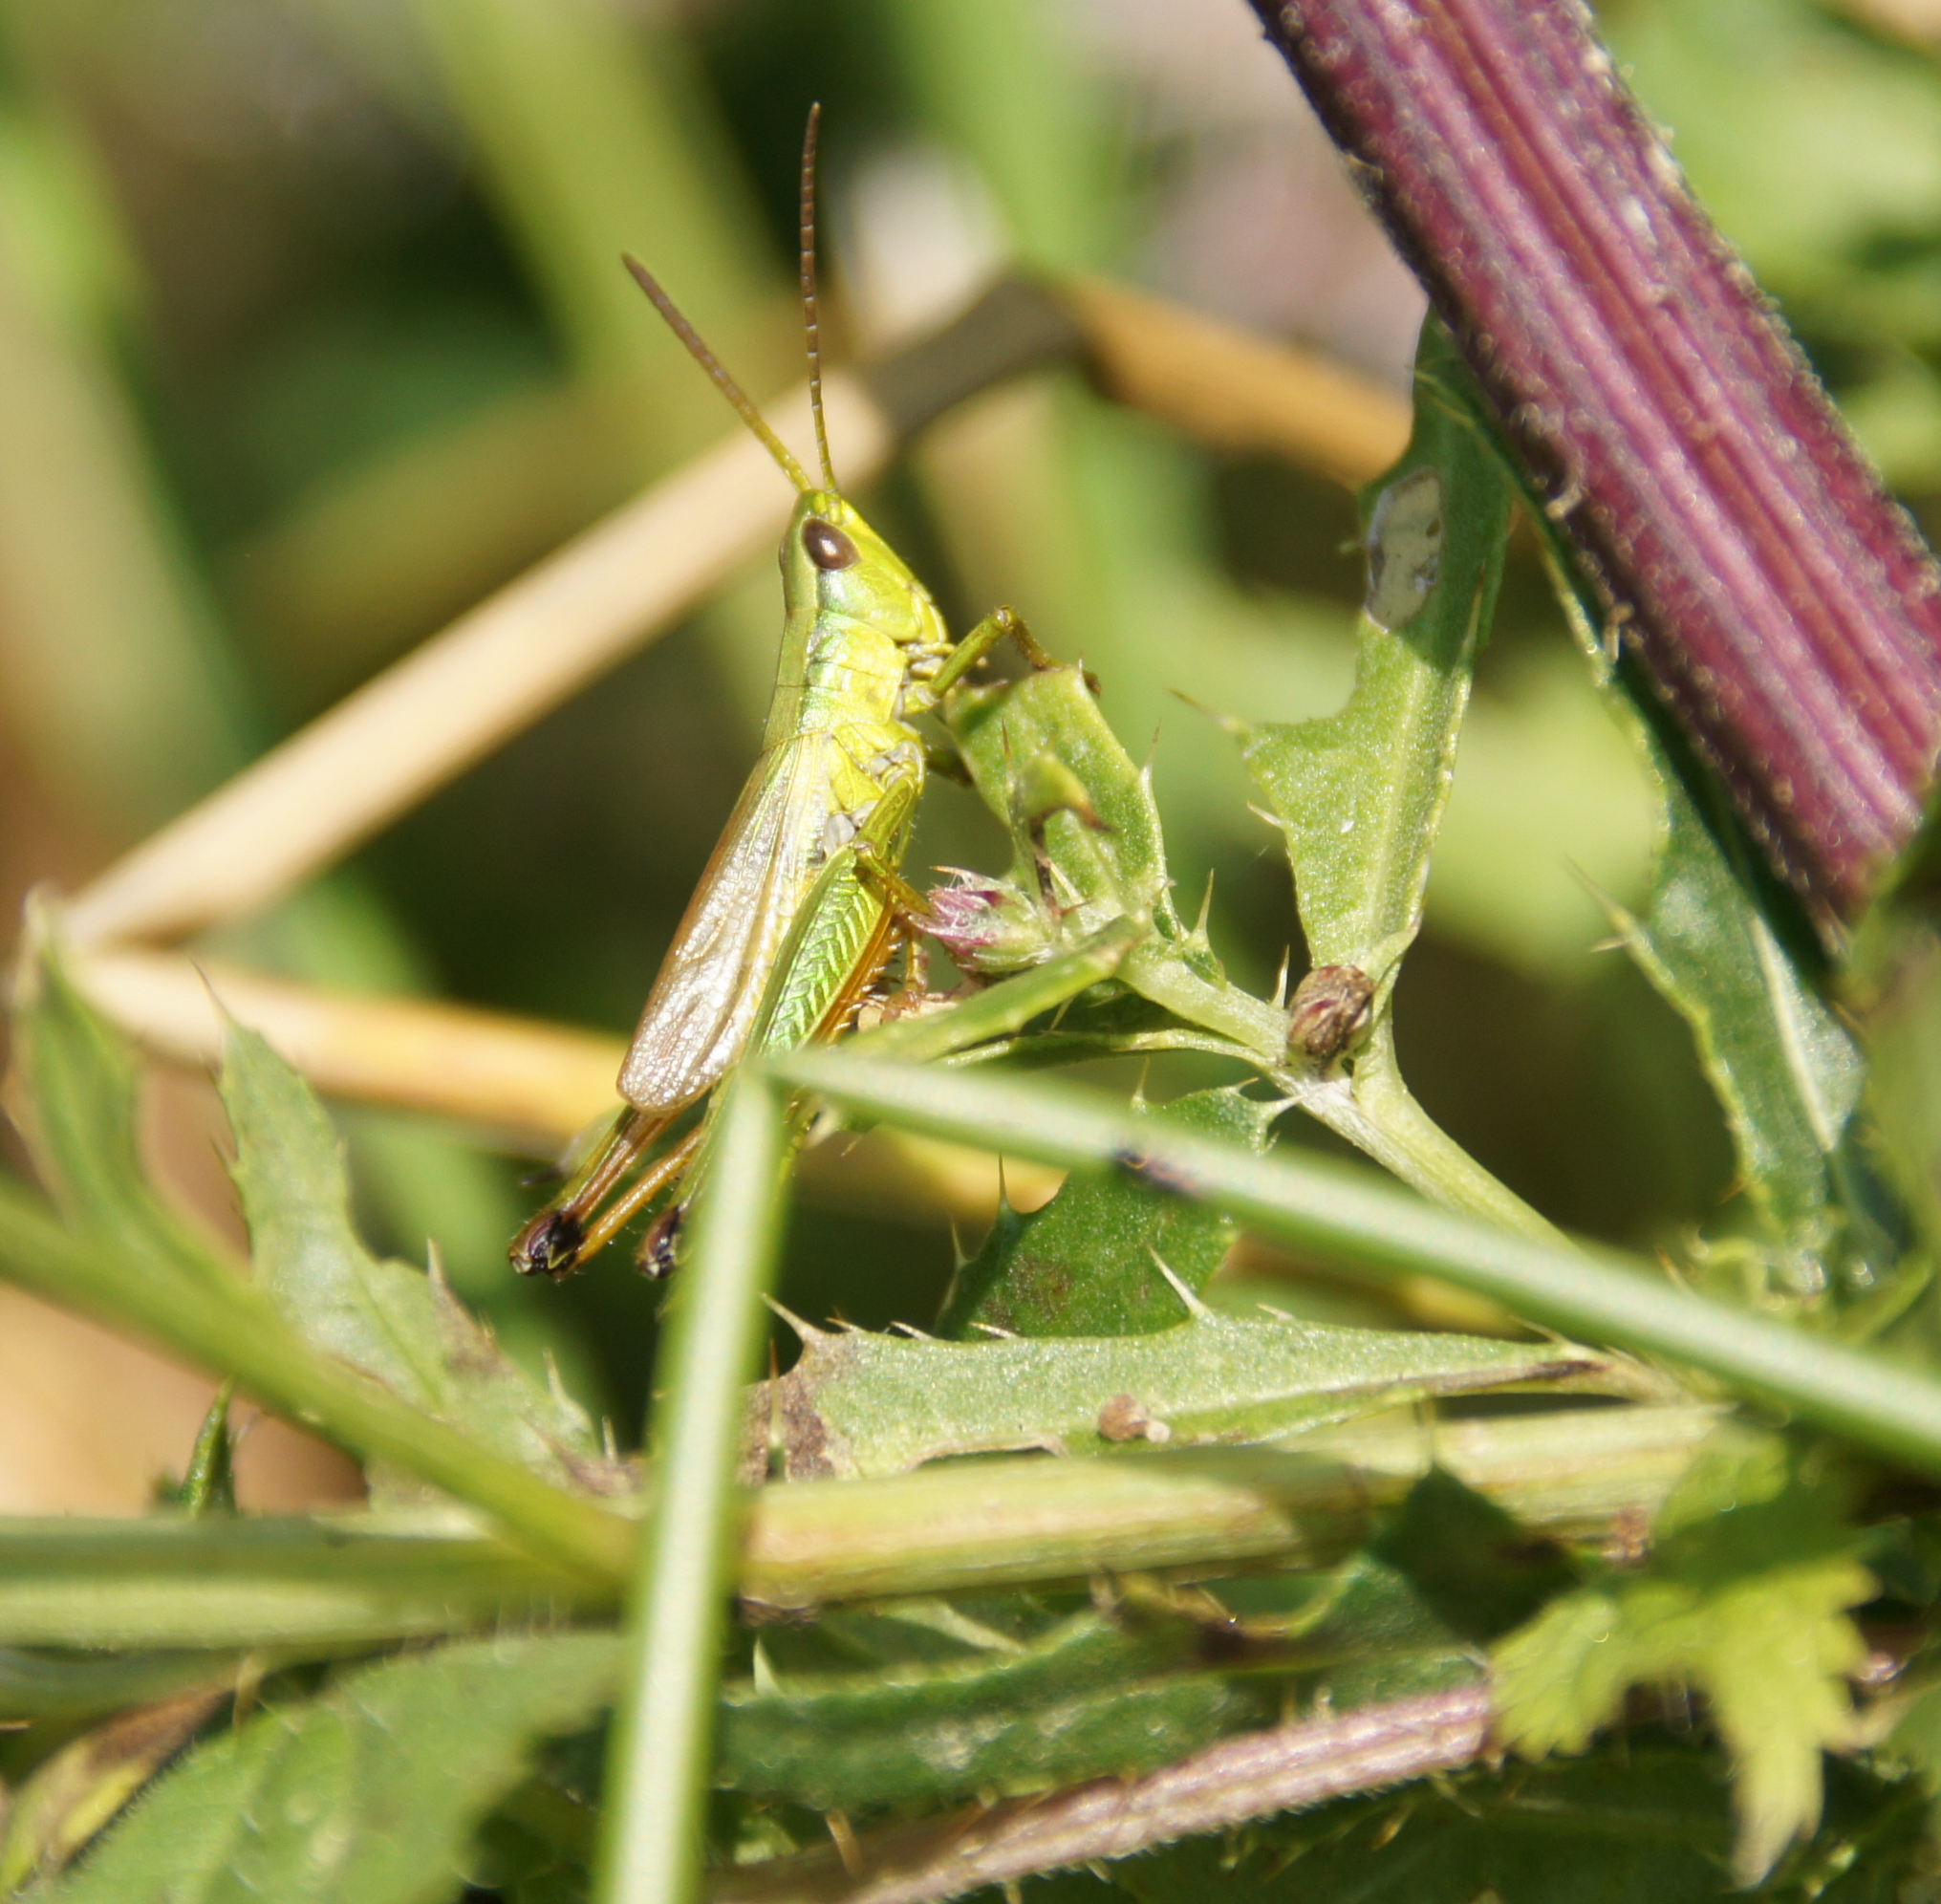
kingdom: Animalia
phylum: Arthropoda
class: Insecta
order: Orthoptera
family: Acrididae
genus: Chrysochraon
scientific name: Chrysochraon dispar
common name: Large gold grasshopper
